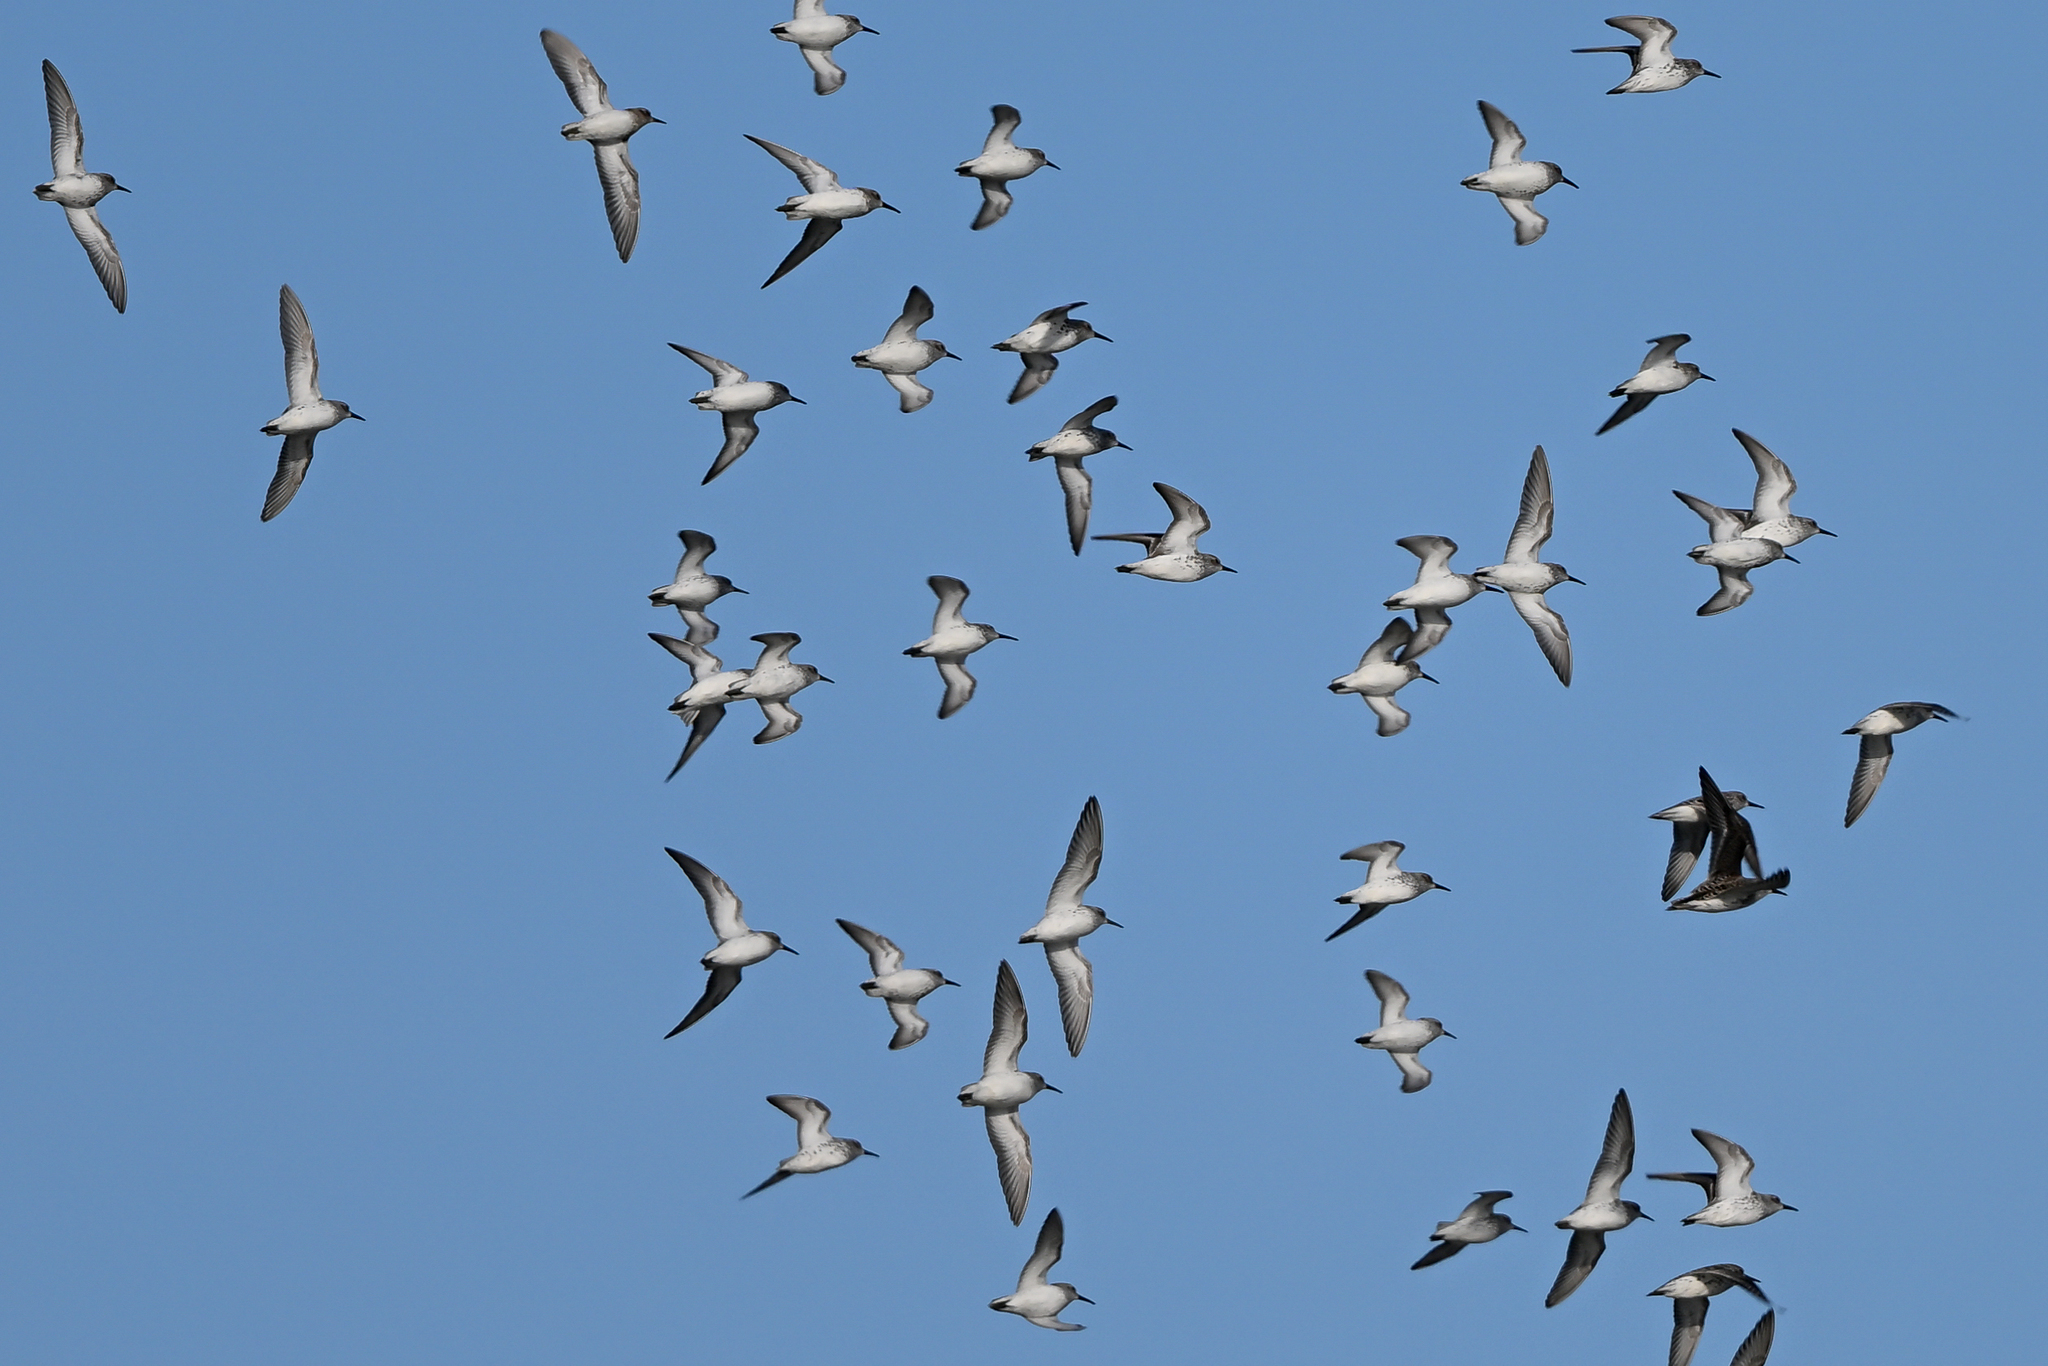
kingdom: Animalia
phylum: Chordata
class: Aves
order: Charadriiformes
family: Scolopacidae
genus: Calidris
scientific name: Calidris alpina
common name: Dunlin
